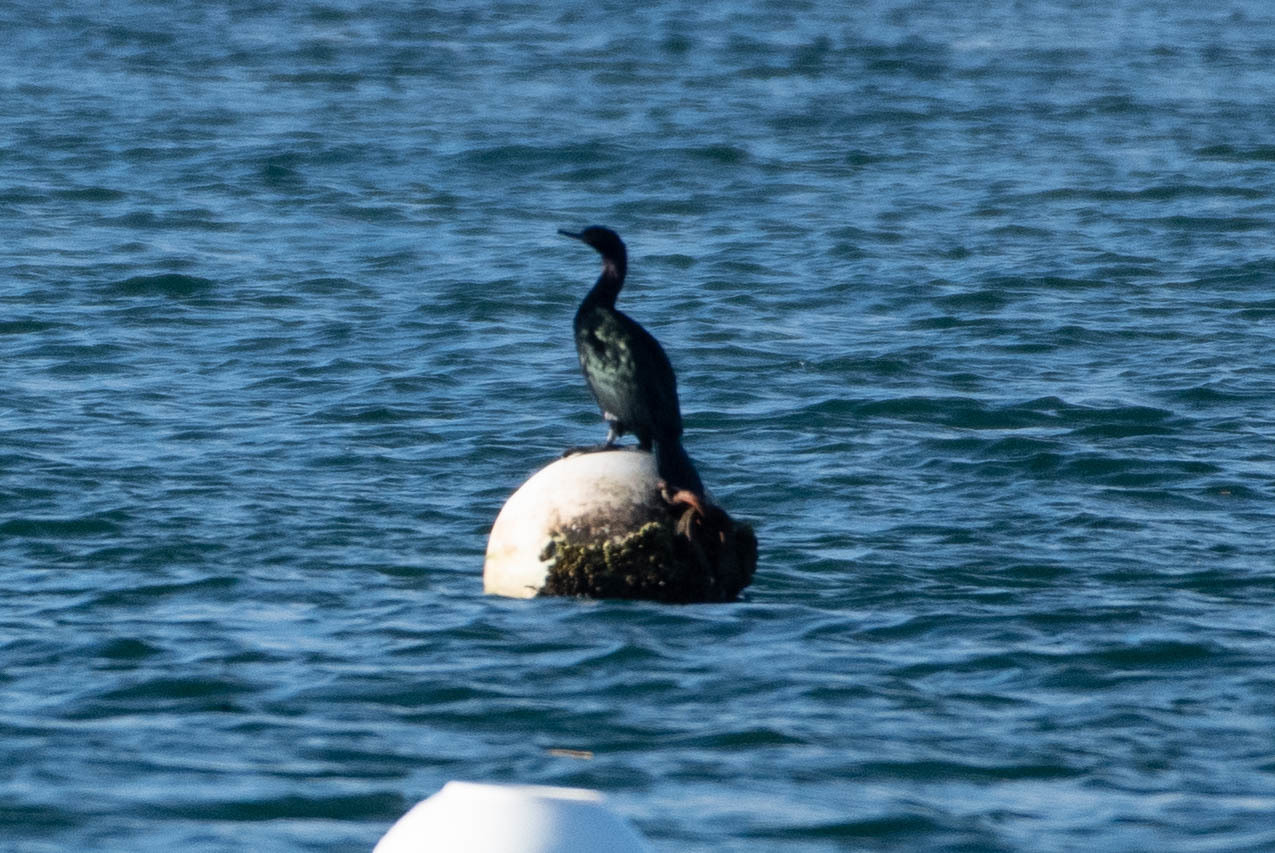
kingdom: Animalia
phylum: Chordata
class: Aves
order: Suliformes
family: Phalacrocoracidae
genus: Phalacrocorax
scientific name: Phalacrocorax pelagicus
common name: Pelagic cormorant
